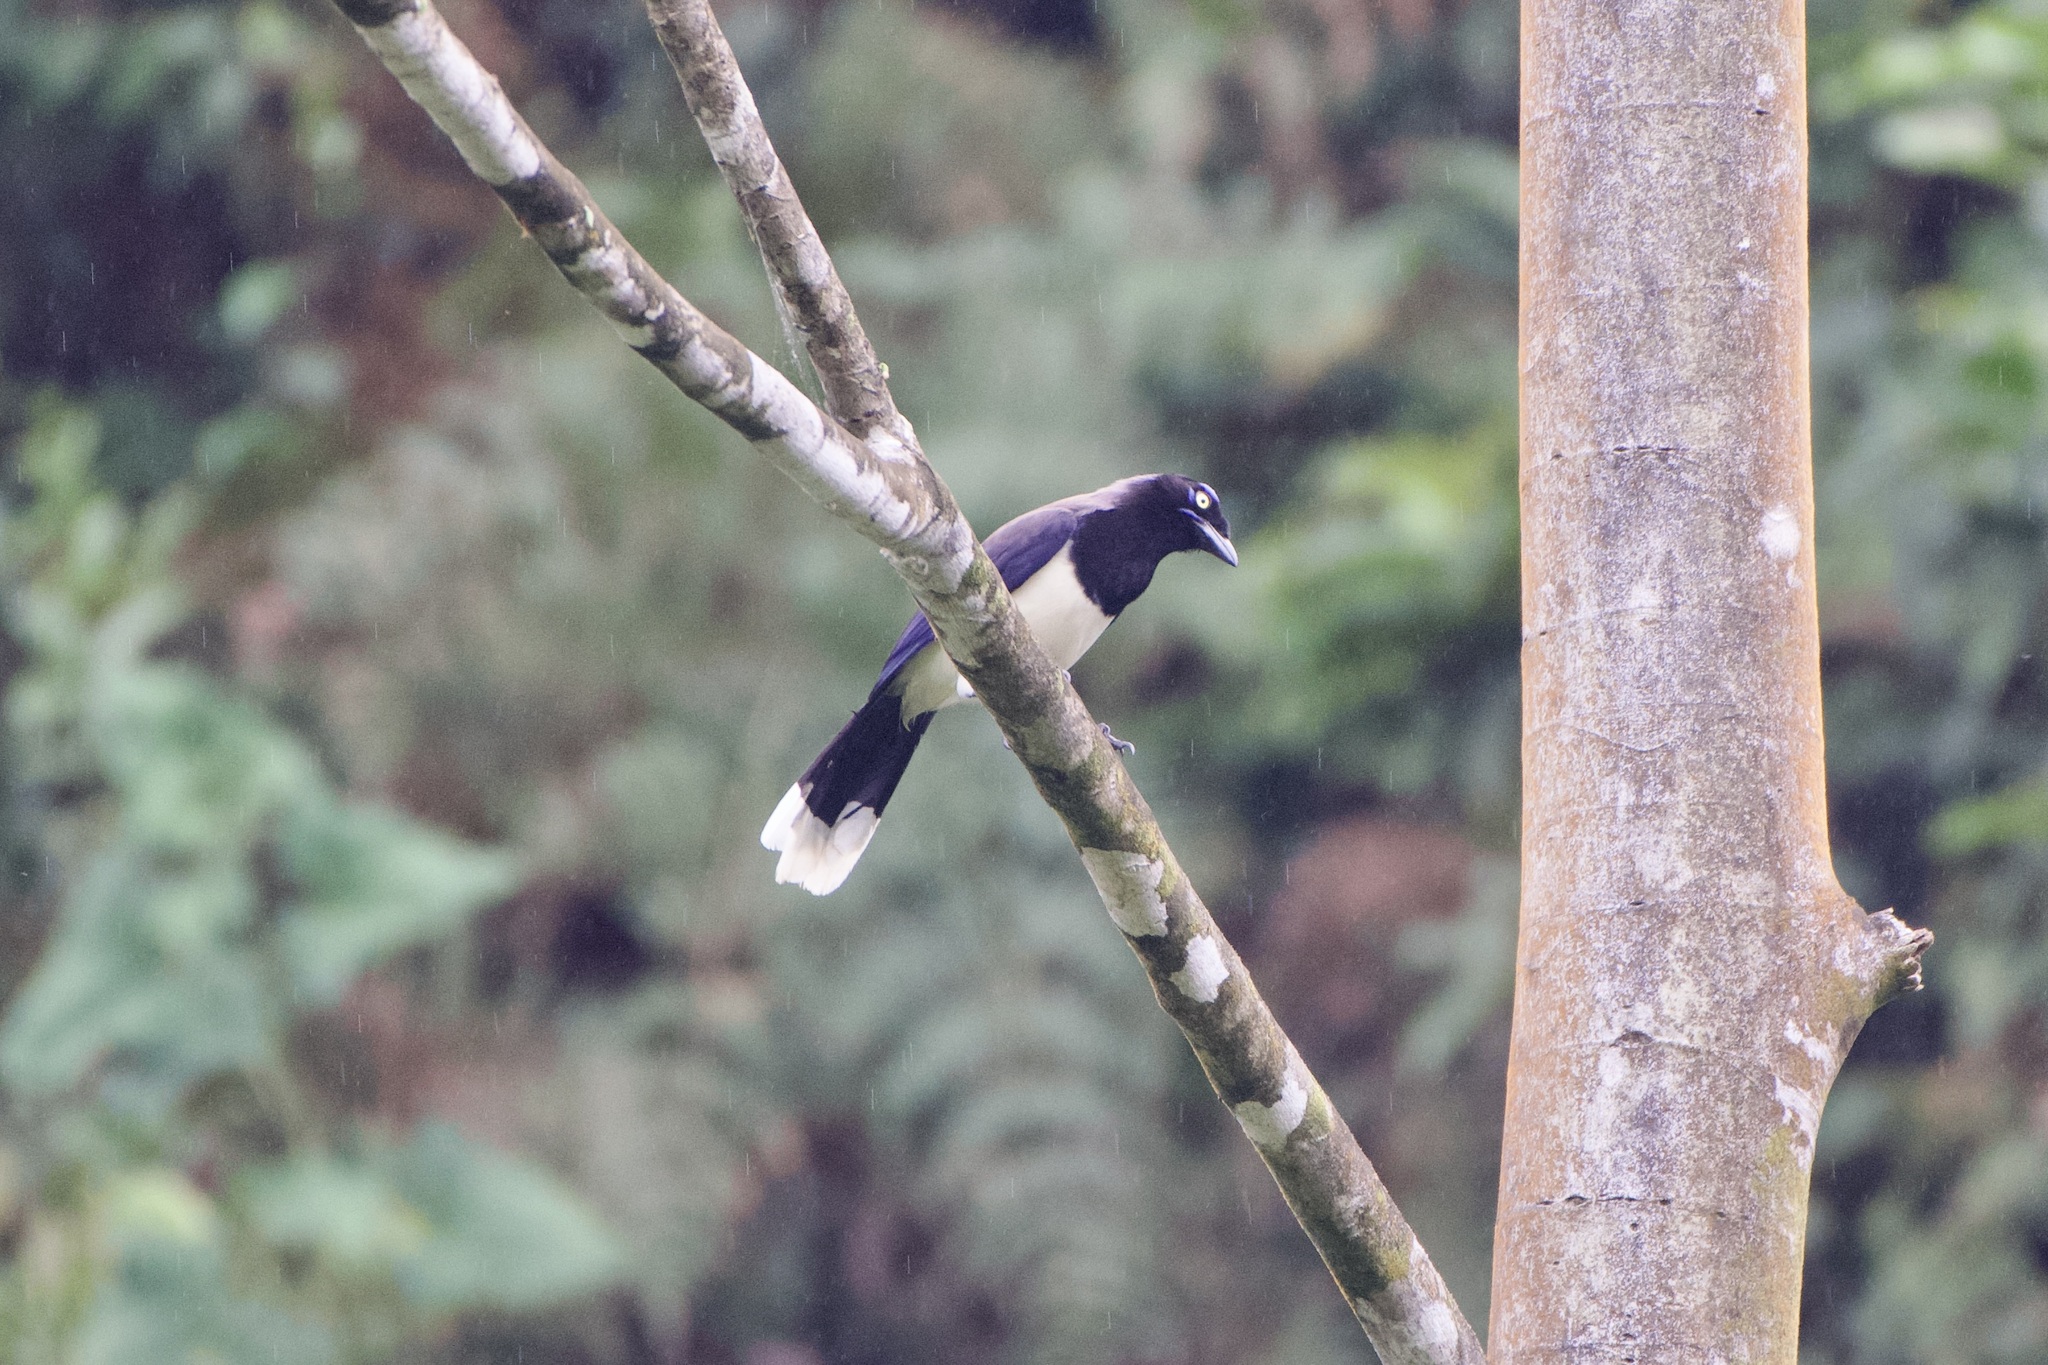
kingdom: Animalia
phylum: Chordata
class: Aves
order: Passeriformes
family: Corvidae
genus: Cyanocorax
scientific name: Cyanocorax affinis
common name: Black-chested jay
